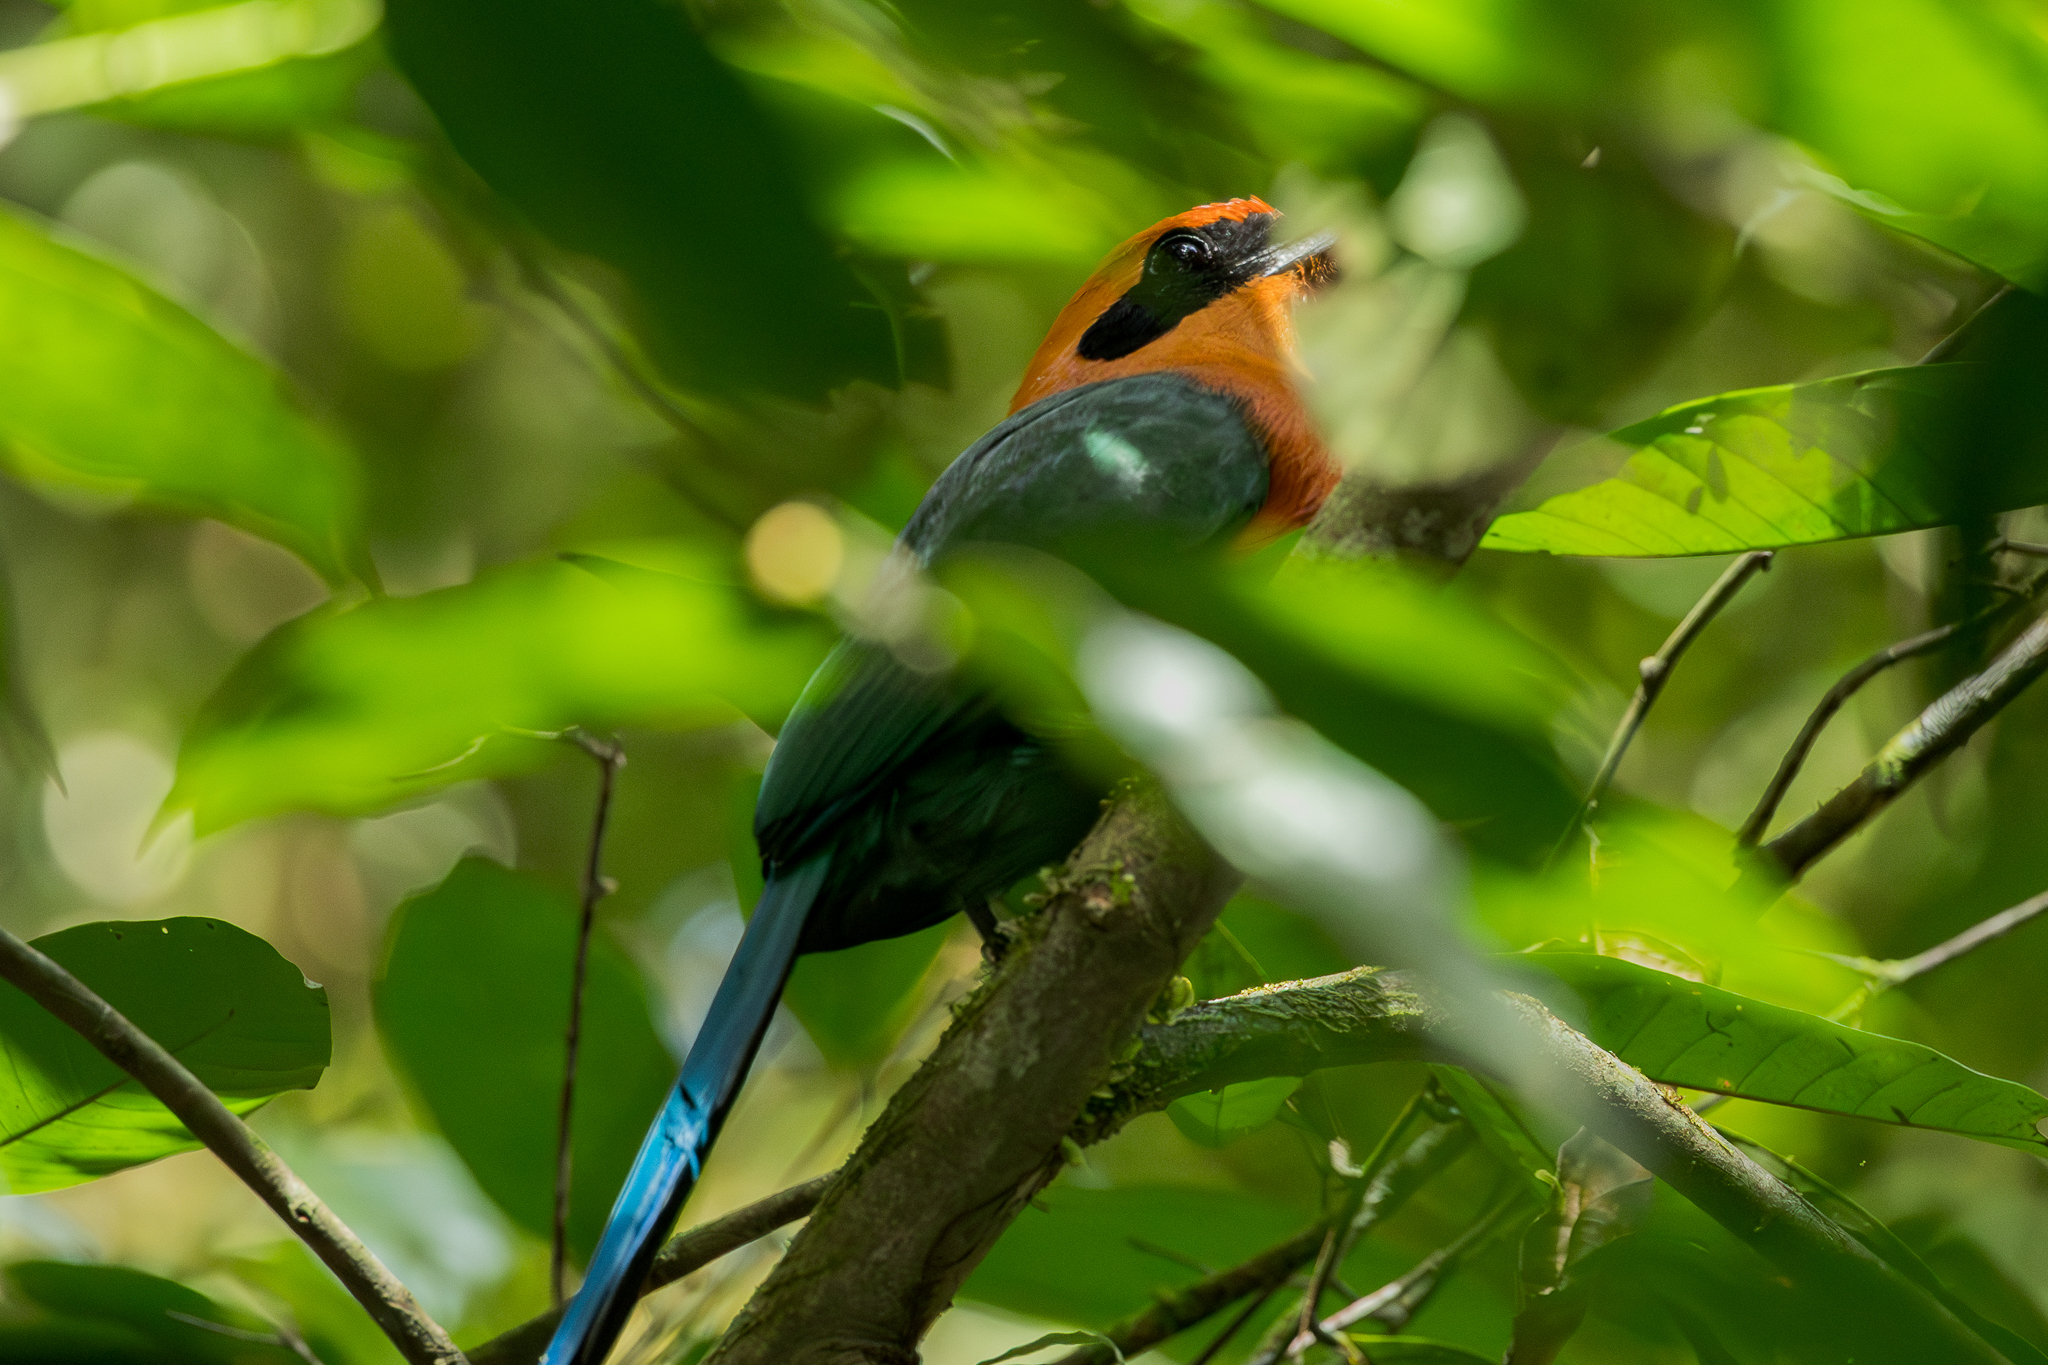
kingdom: Animalia
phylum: Chordata
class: Aves
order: Coraciiformes
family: Momotidae
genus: Baryphthengus
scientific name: Baryphthengus martii
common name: Rufous motmot
